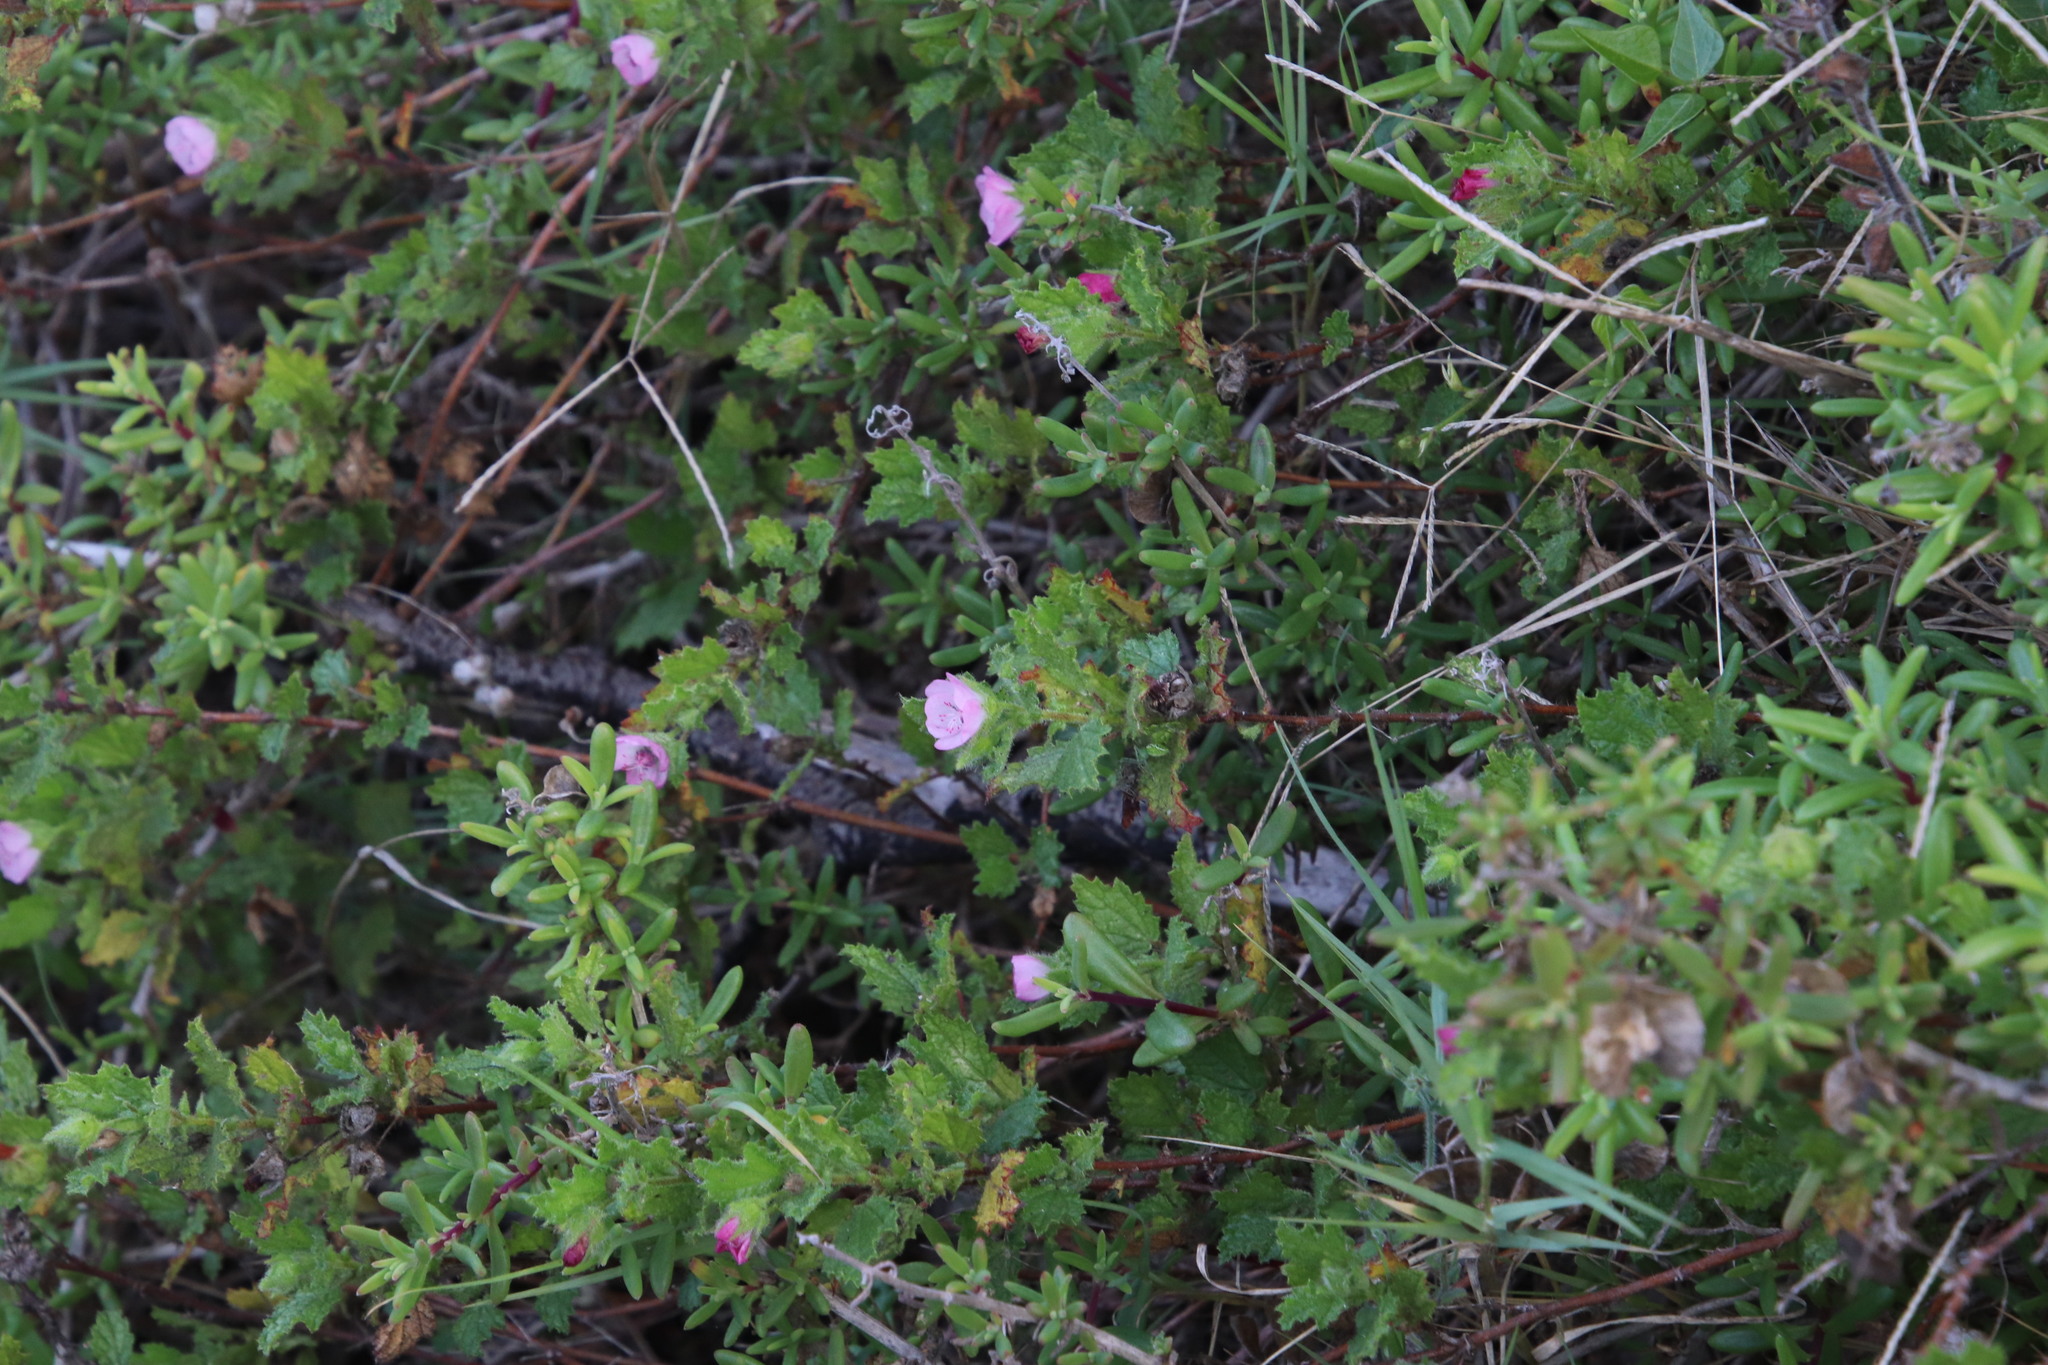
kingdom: Plantae
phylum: Tracheophyta
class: Magnoliopsida
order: Malvales
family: Malvaceae
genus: Anisodontea
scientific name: Anisodontea scabrosa
